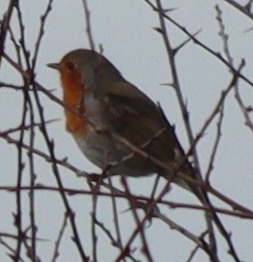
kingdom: Animalia
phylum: Chordata
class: Aves
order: Passeriformes
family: Muscicapidae
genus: Erithacus
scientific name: Erithacus rubecula
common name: European robin
